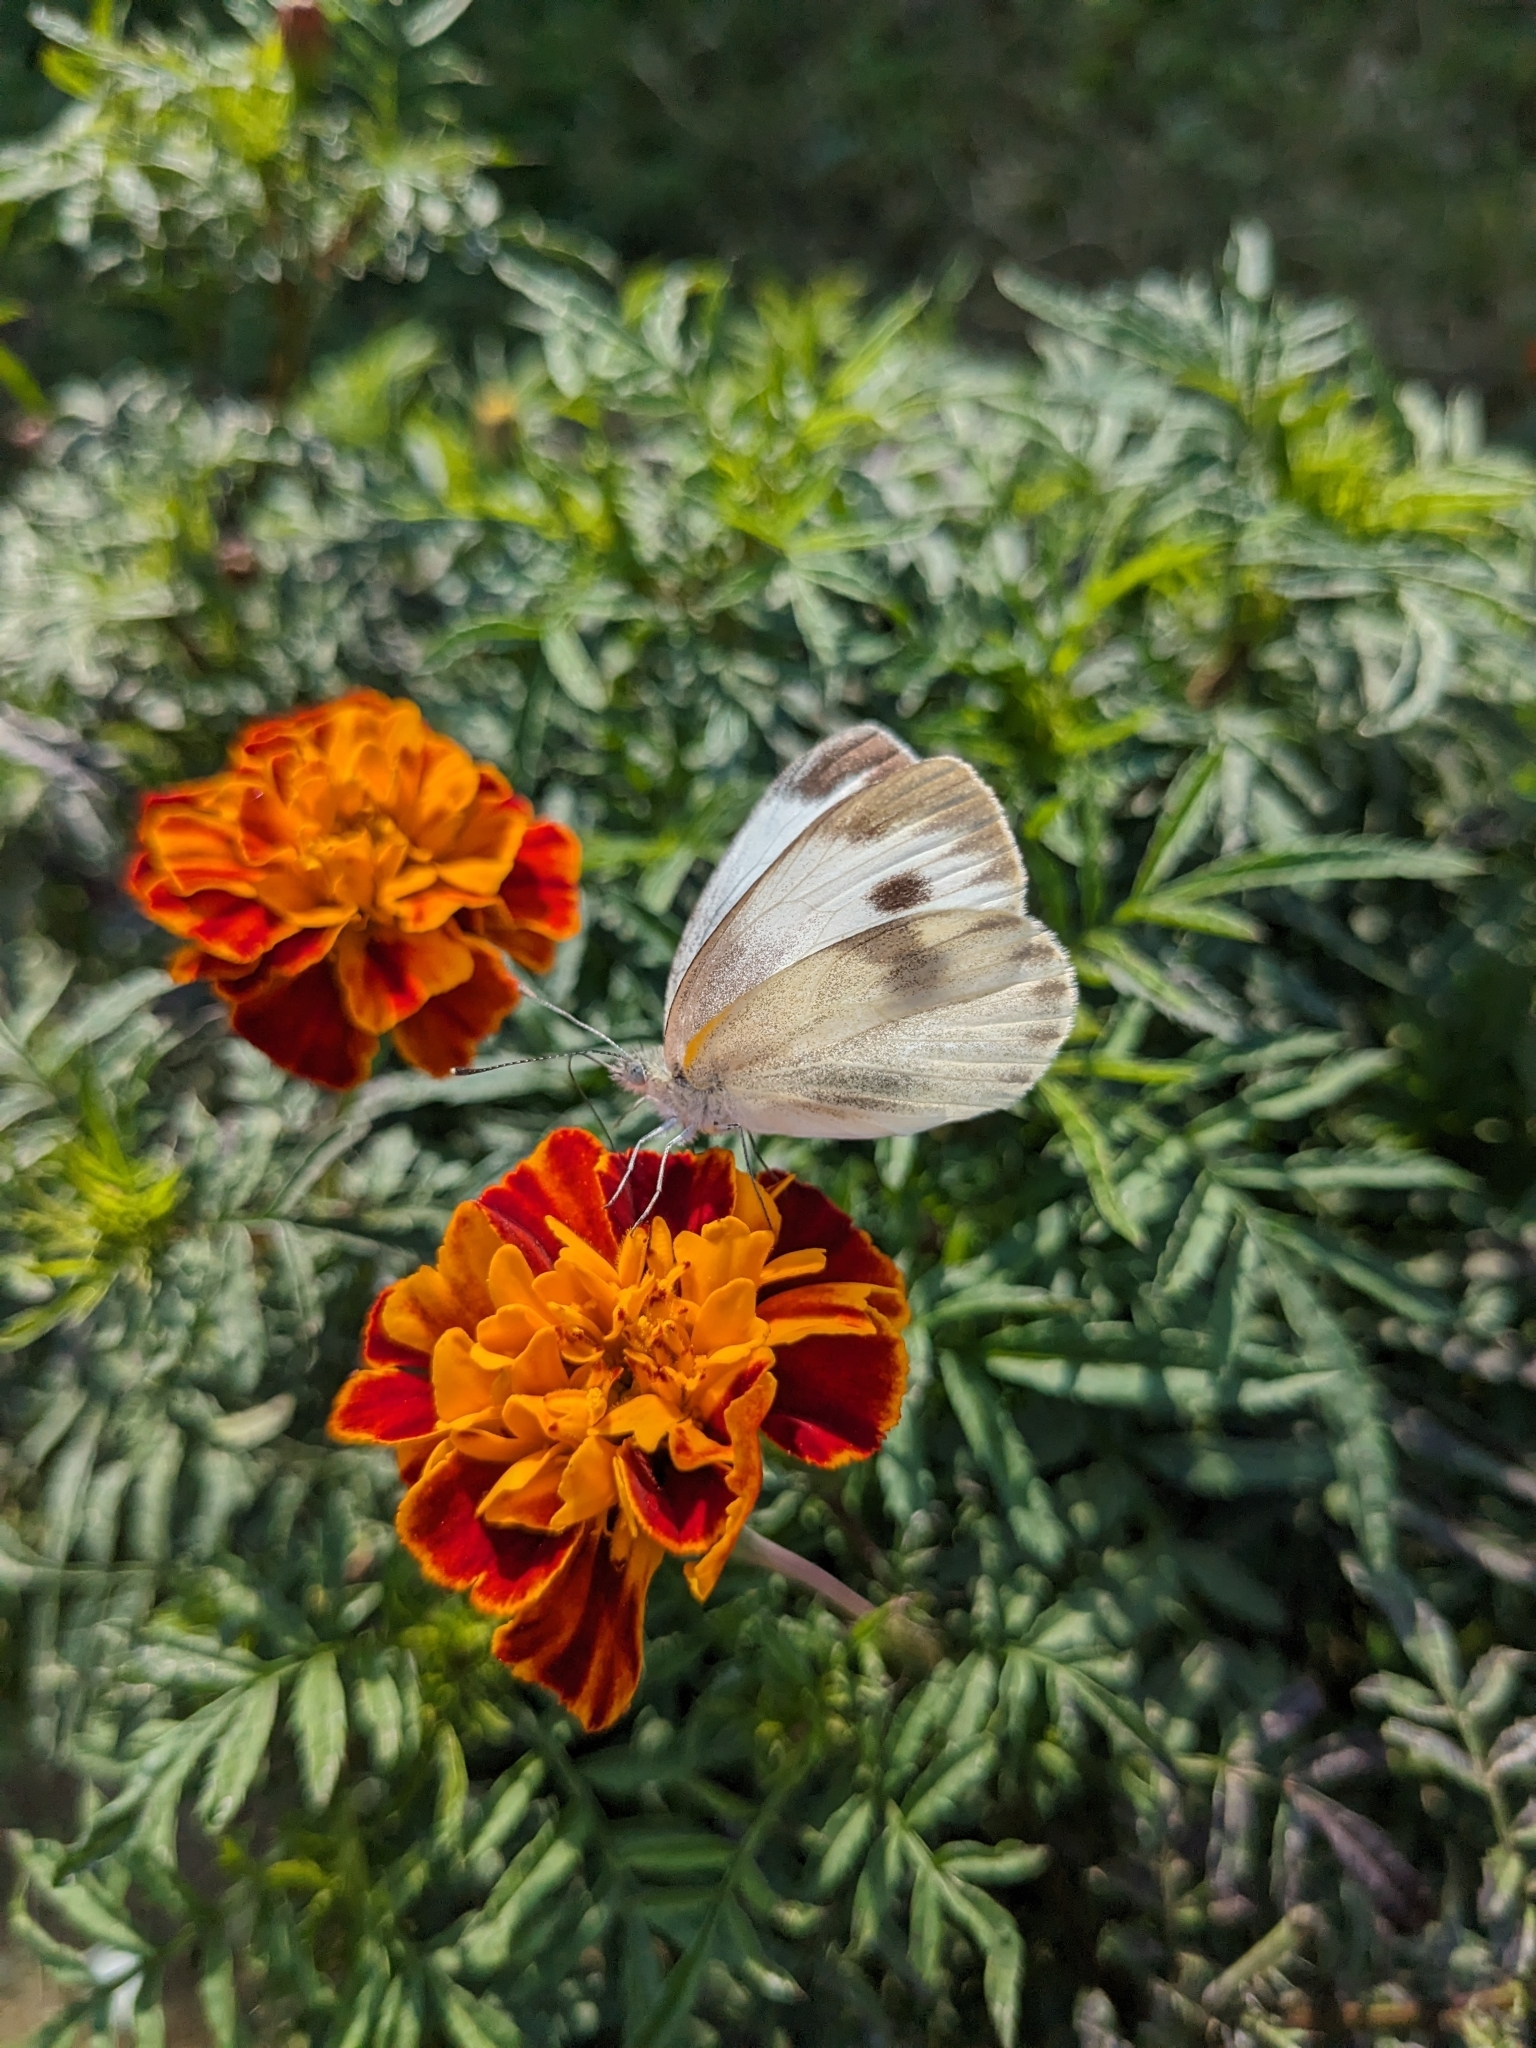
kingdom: Animalia
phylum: Arthropoda
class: Insecta
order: Lepidoptera
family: Pieridae
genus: Pieris
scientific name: Pieris canidia
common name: Indian cabbage white
